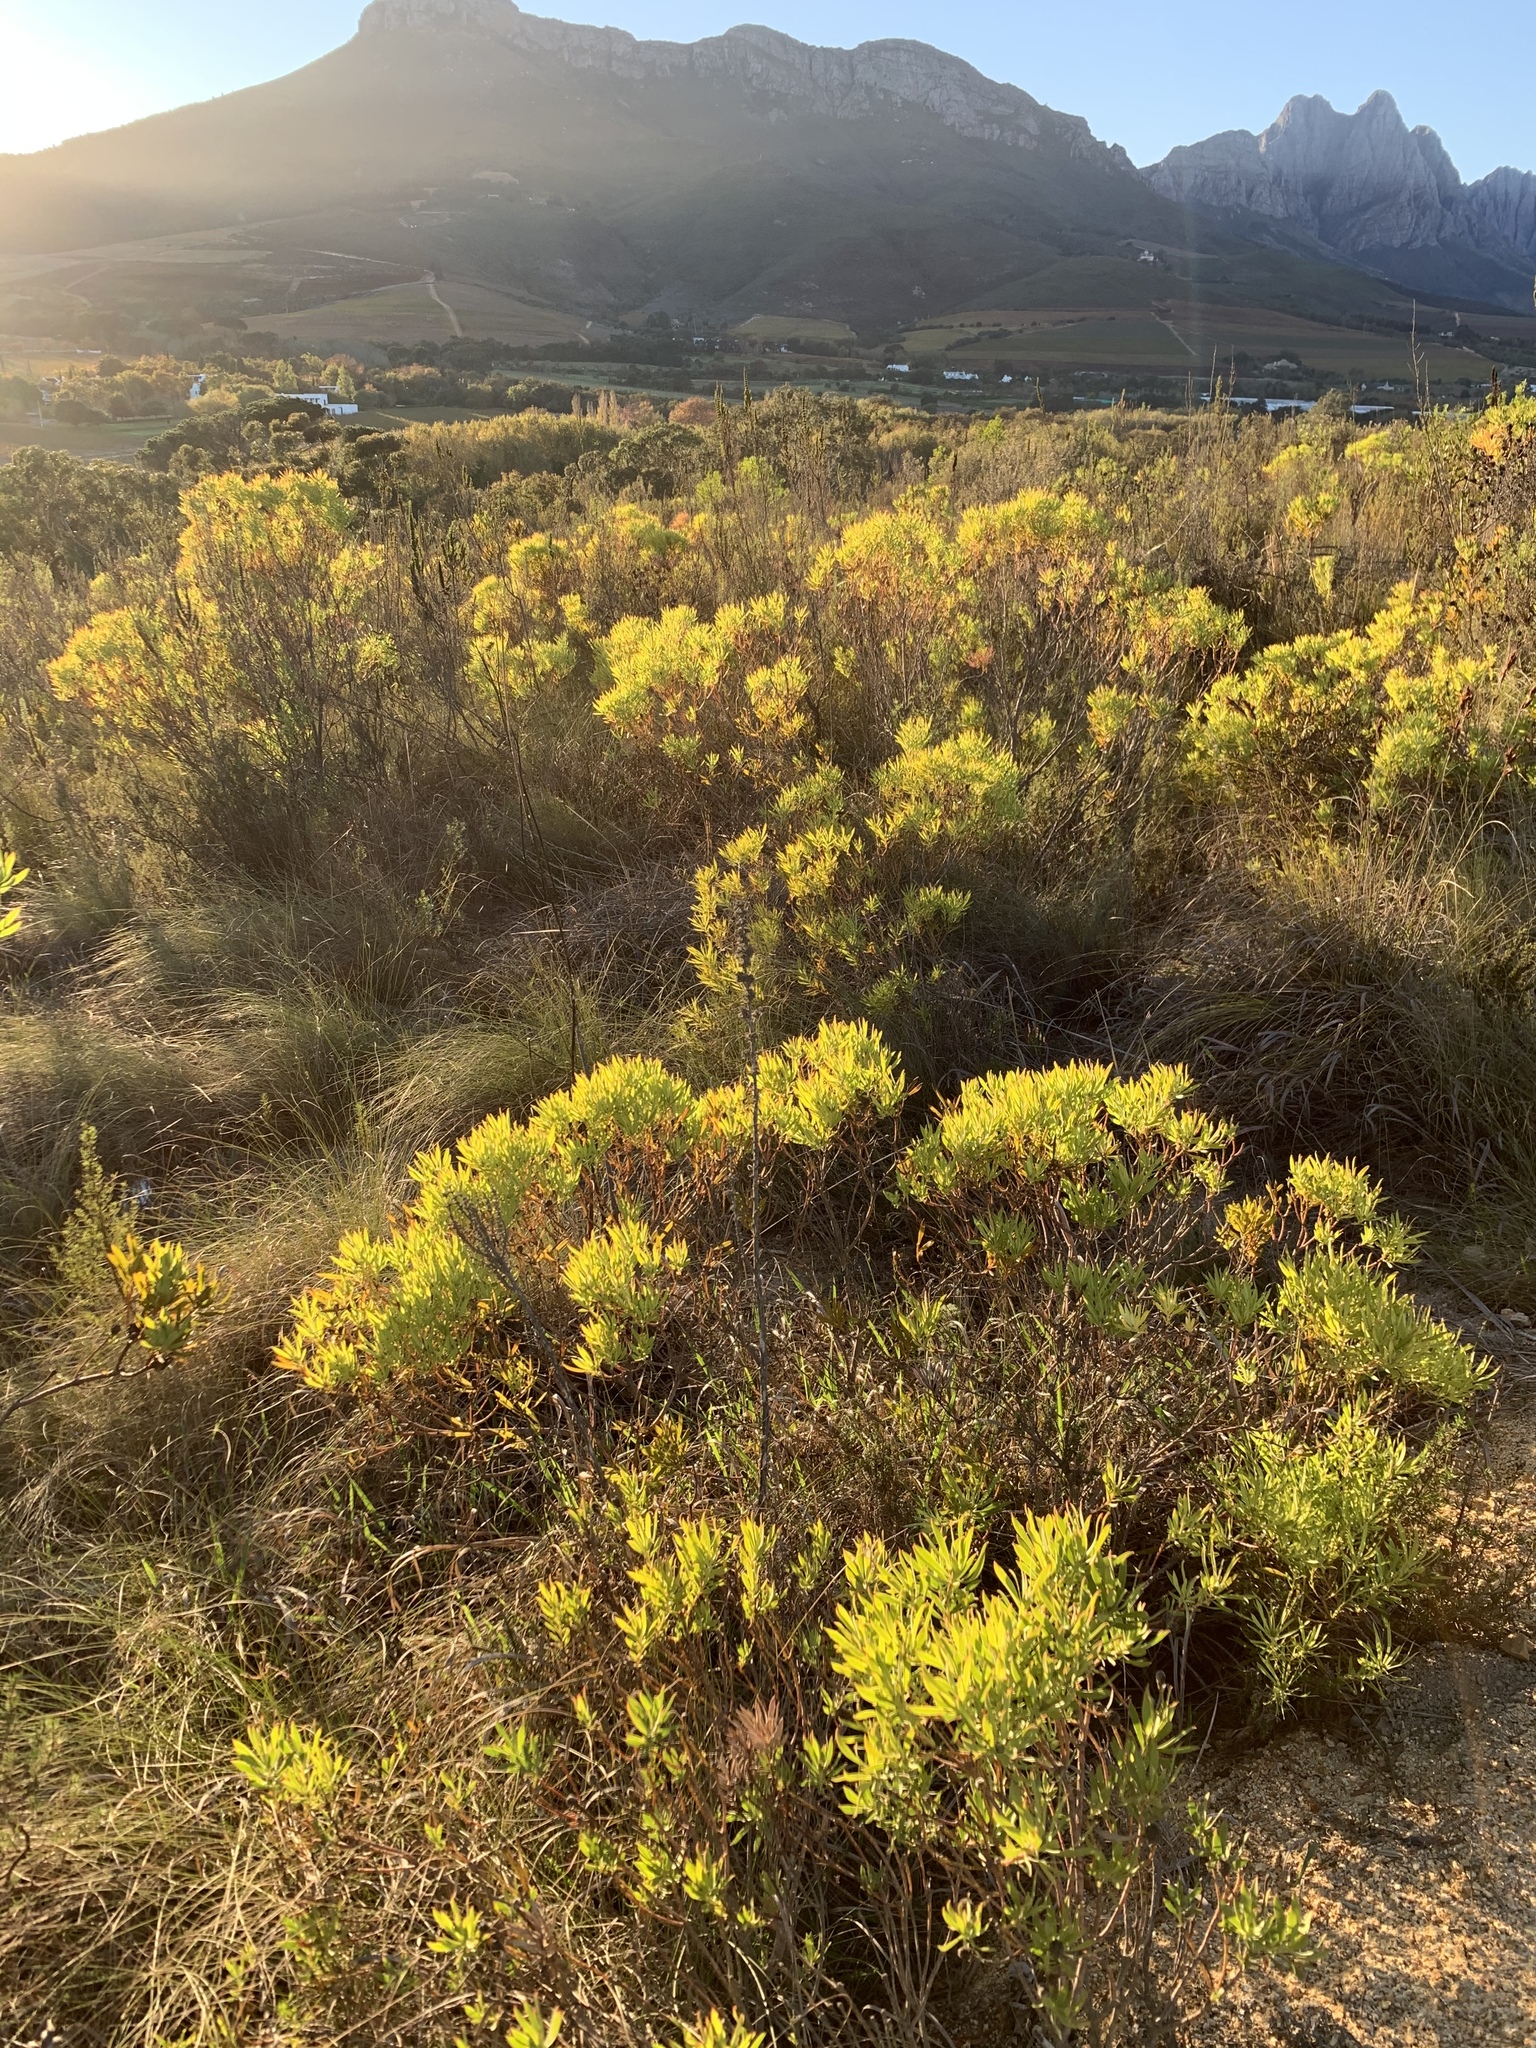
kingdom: Plantae
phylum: Tracheophyta
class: Magnoliopsida
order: Proteales
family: Proteaceae
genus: Leucadendron
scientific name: Leucadendron salignum
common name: Common sunshine conebush
